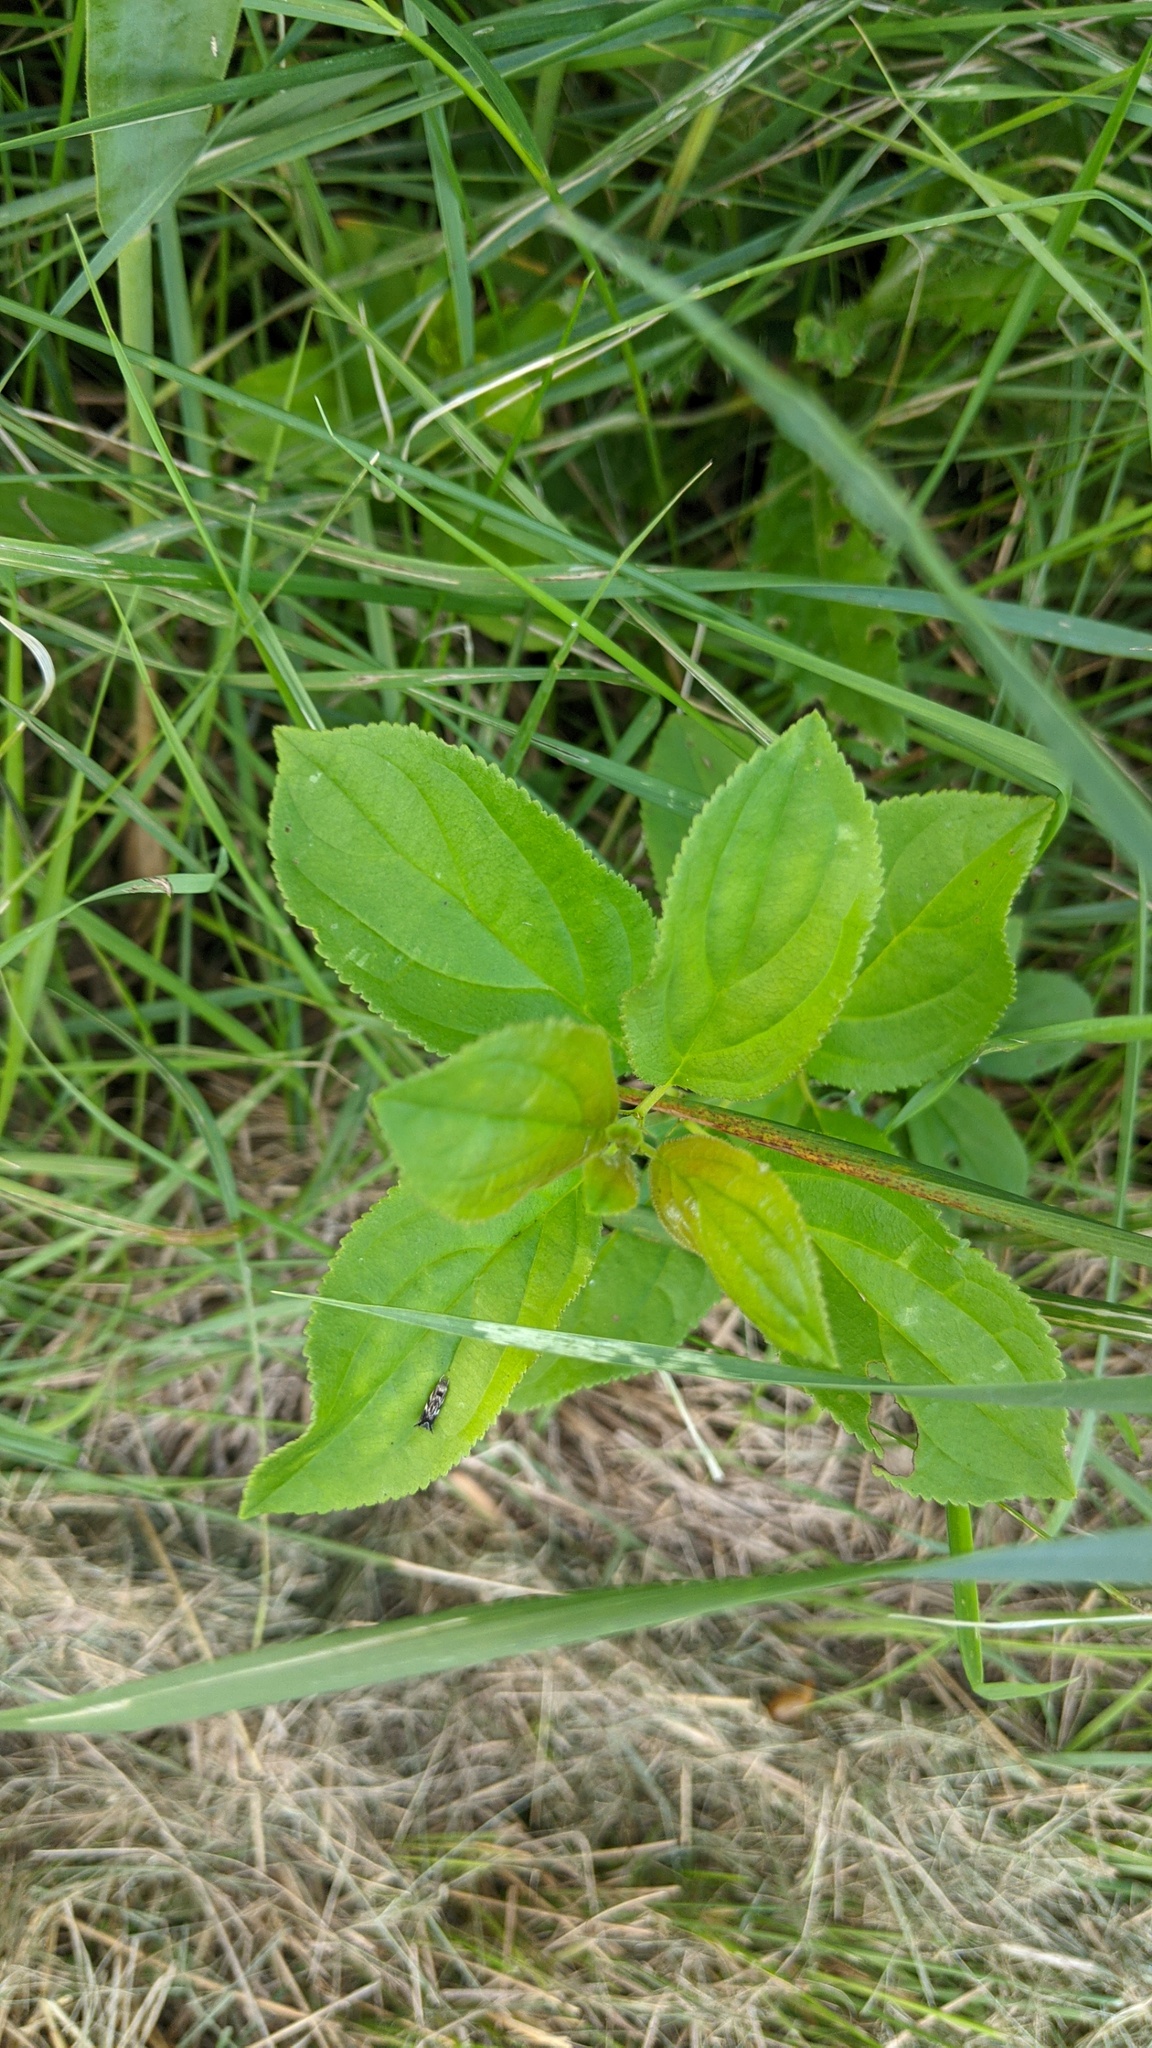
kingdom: Plantae
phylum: Tracheophyta
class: Magnoliopsida
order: Rosales
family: Rhamnaceae
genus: Rhamnus
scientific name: Rhamnus cathartica
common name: Common buckthorn
